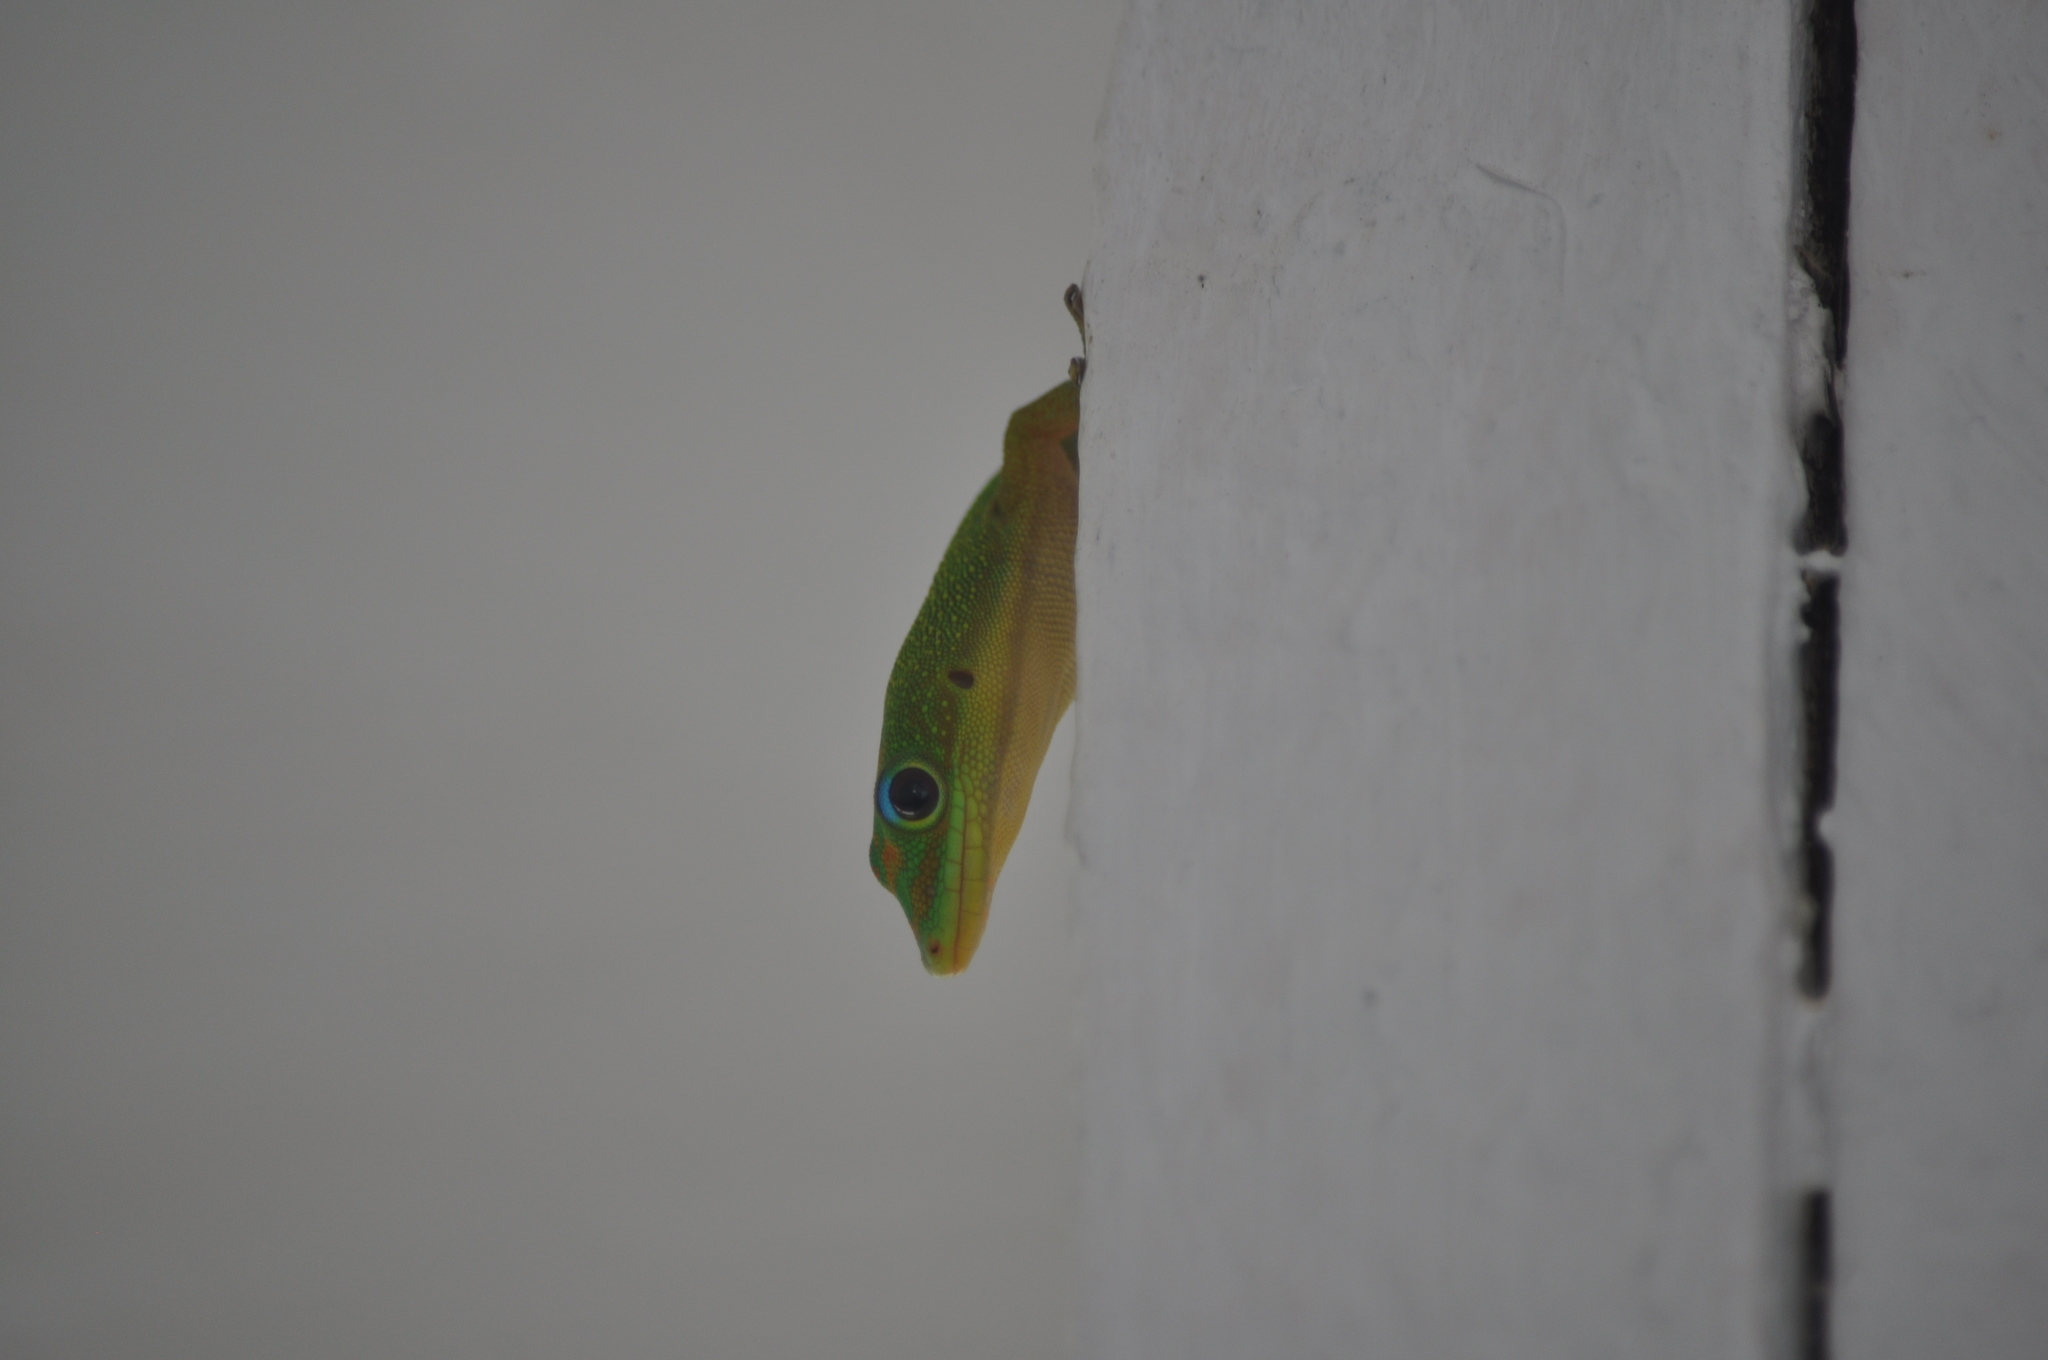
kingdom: Animalia
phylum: Chordata
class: Squamata
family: Gekkonidae
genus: Phelsuma
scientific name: Phelsuma laticauda
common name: Gold dust day gecko
